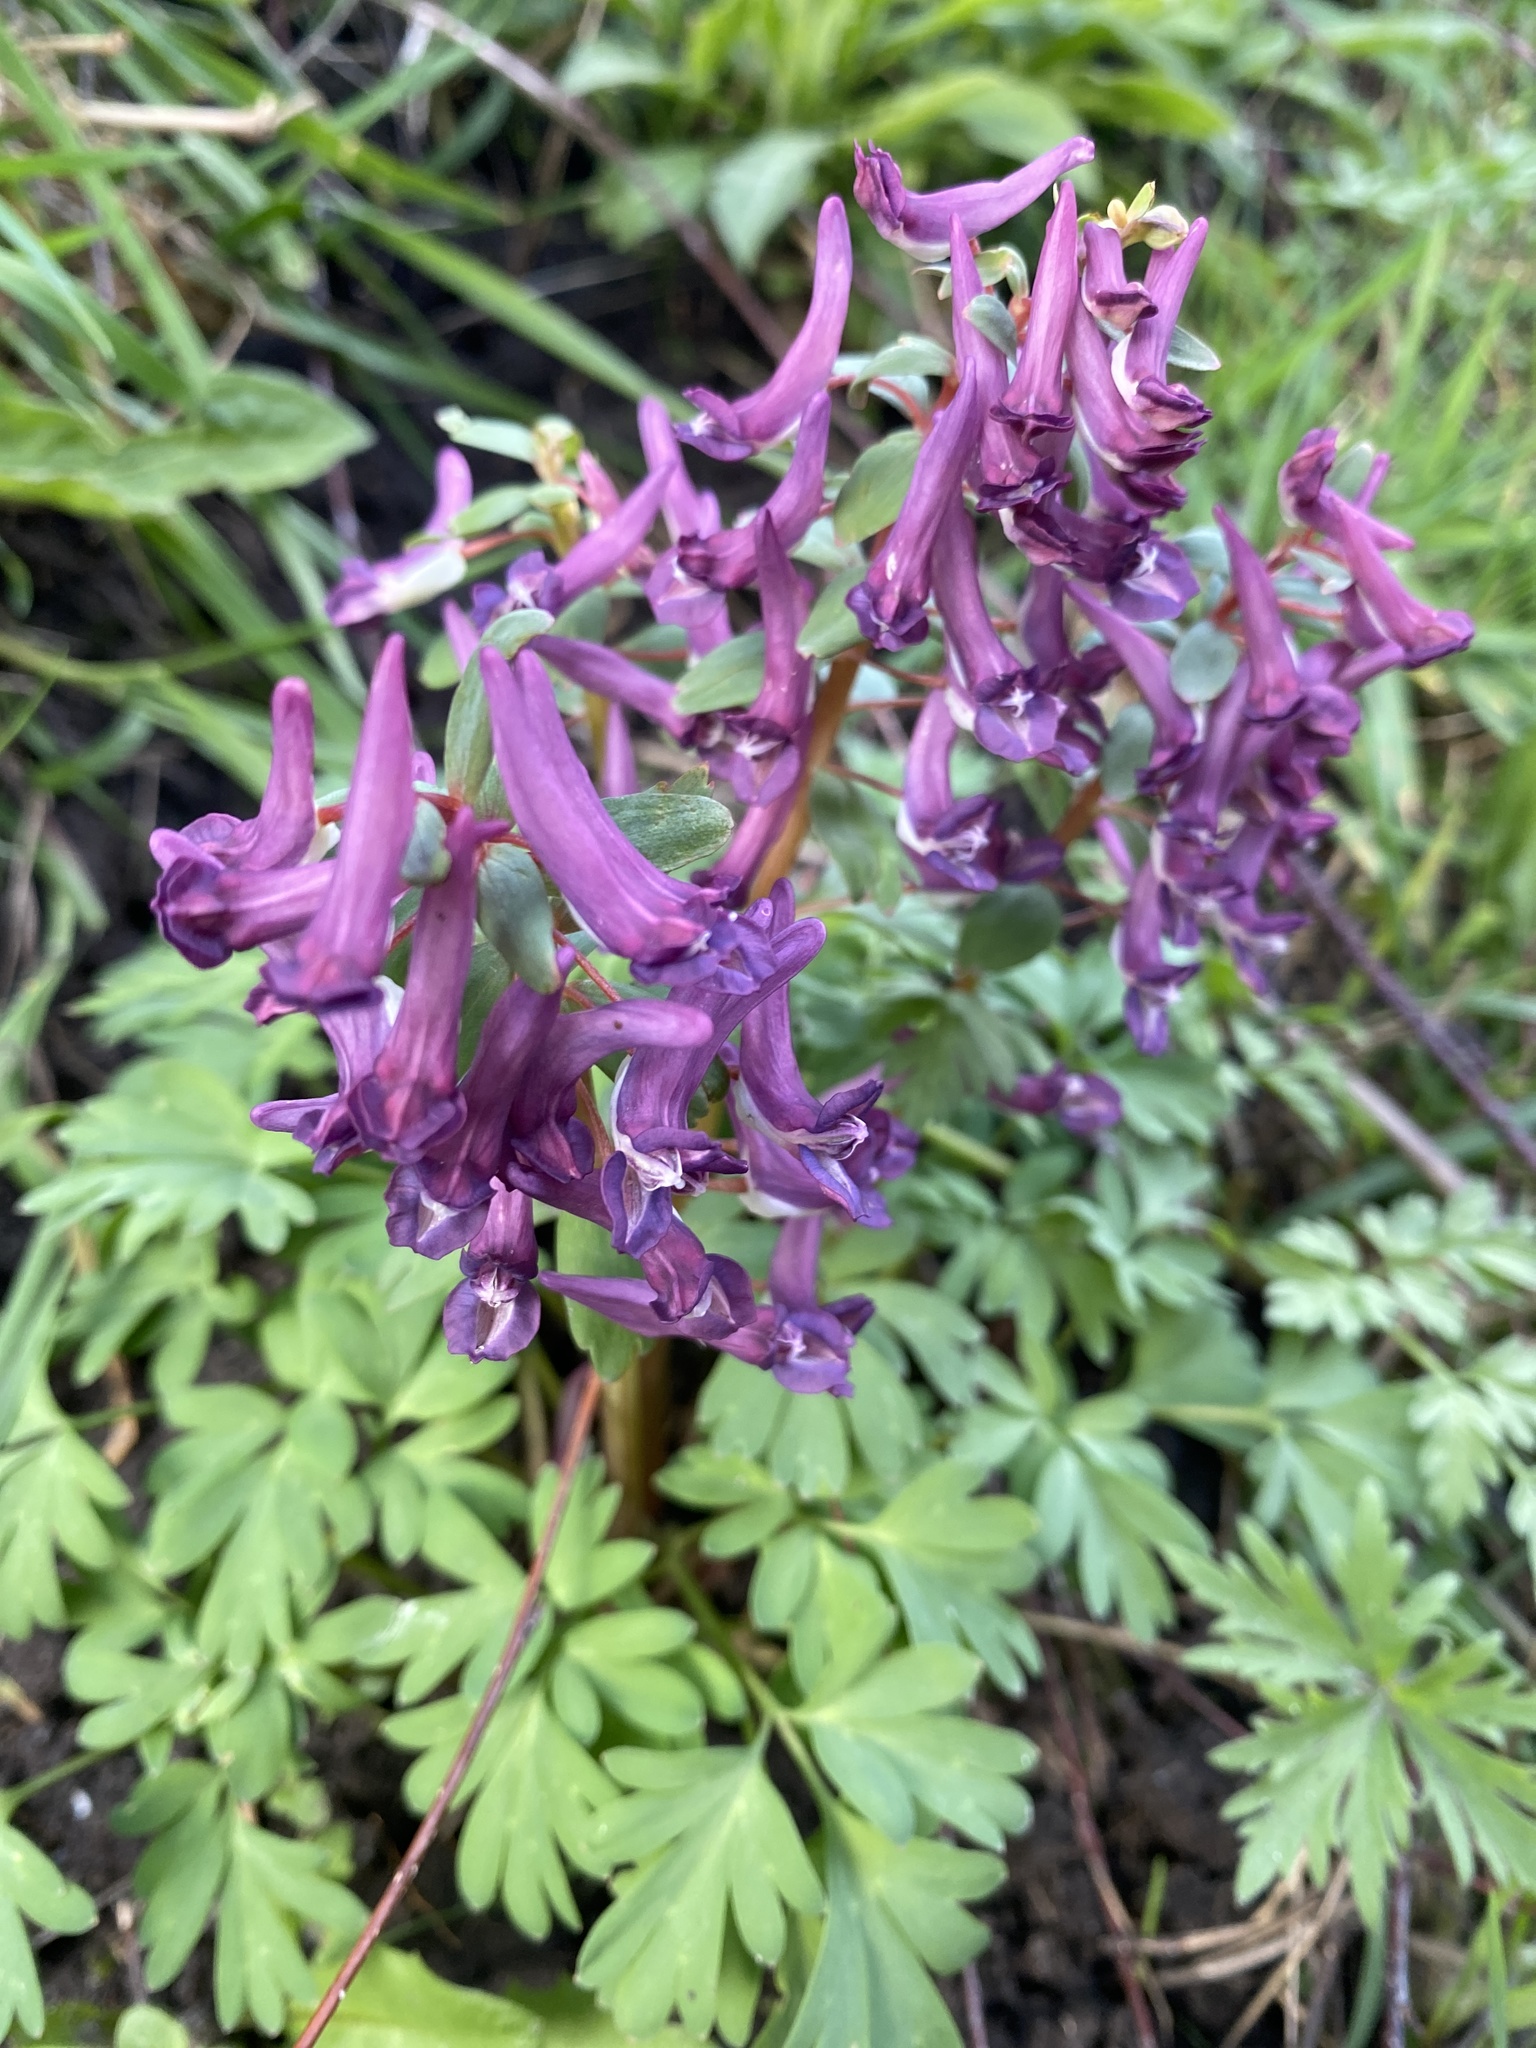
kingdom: Plantae
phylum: Tracheophyta
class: Magnoliopsida
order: Ranunculales
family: Papaveraceae
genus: Corydalis
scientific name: Corydalis cava
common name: Hollowroot
